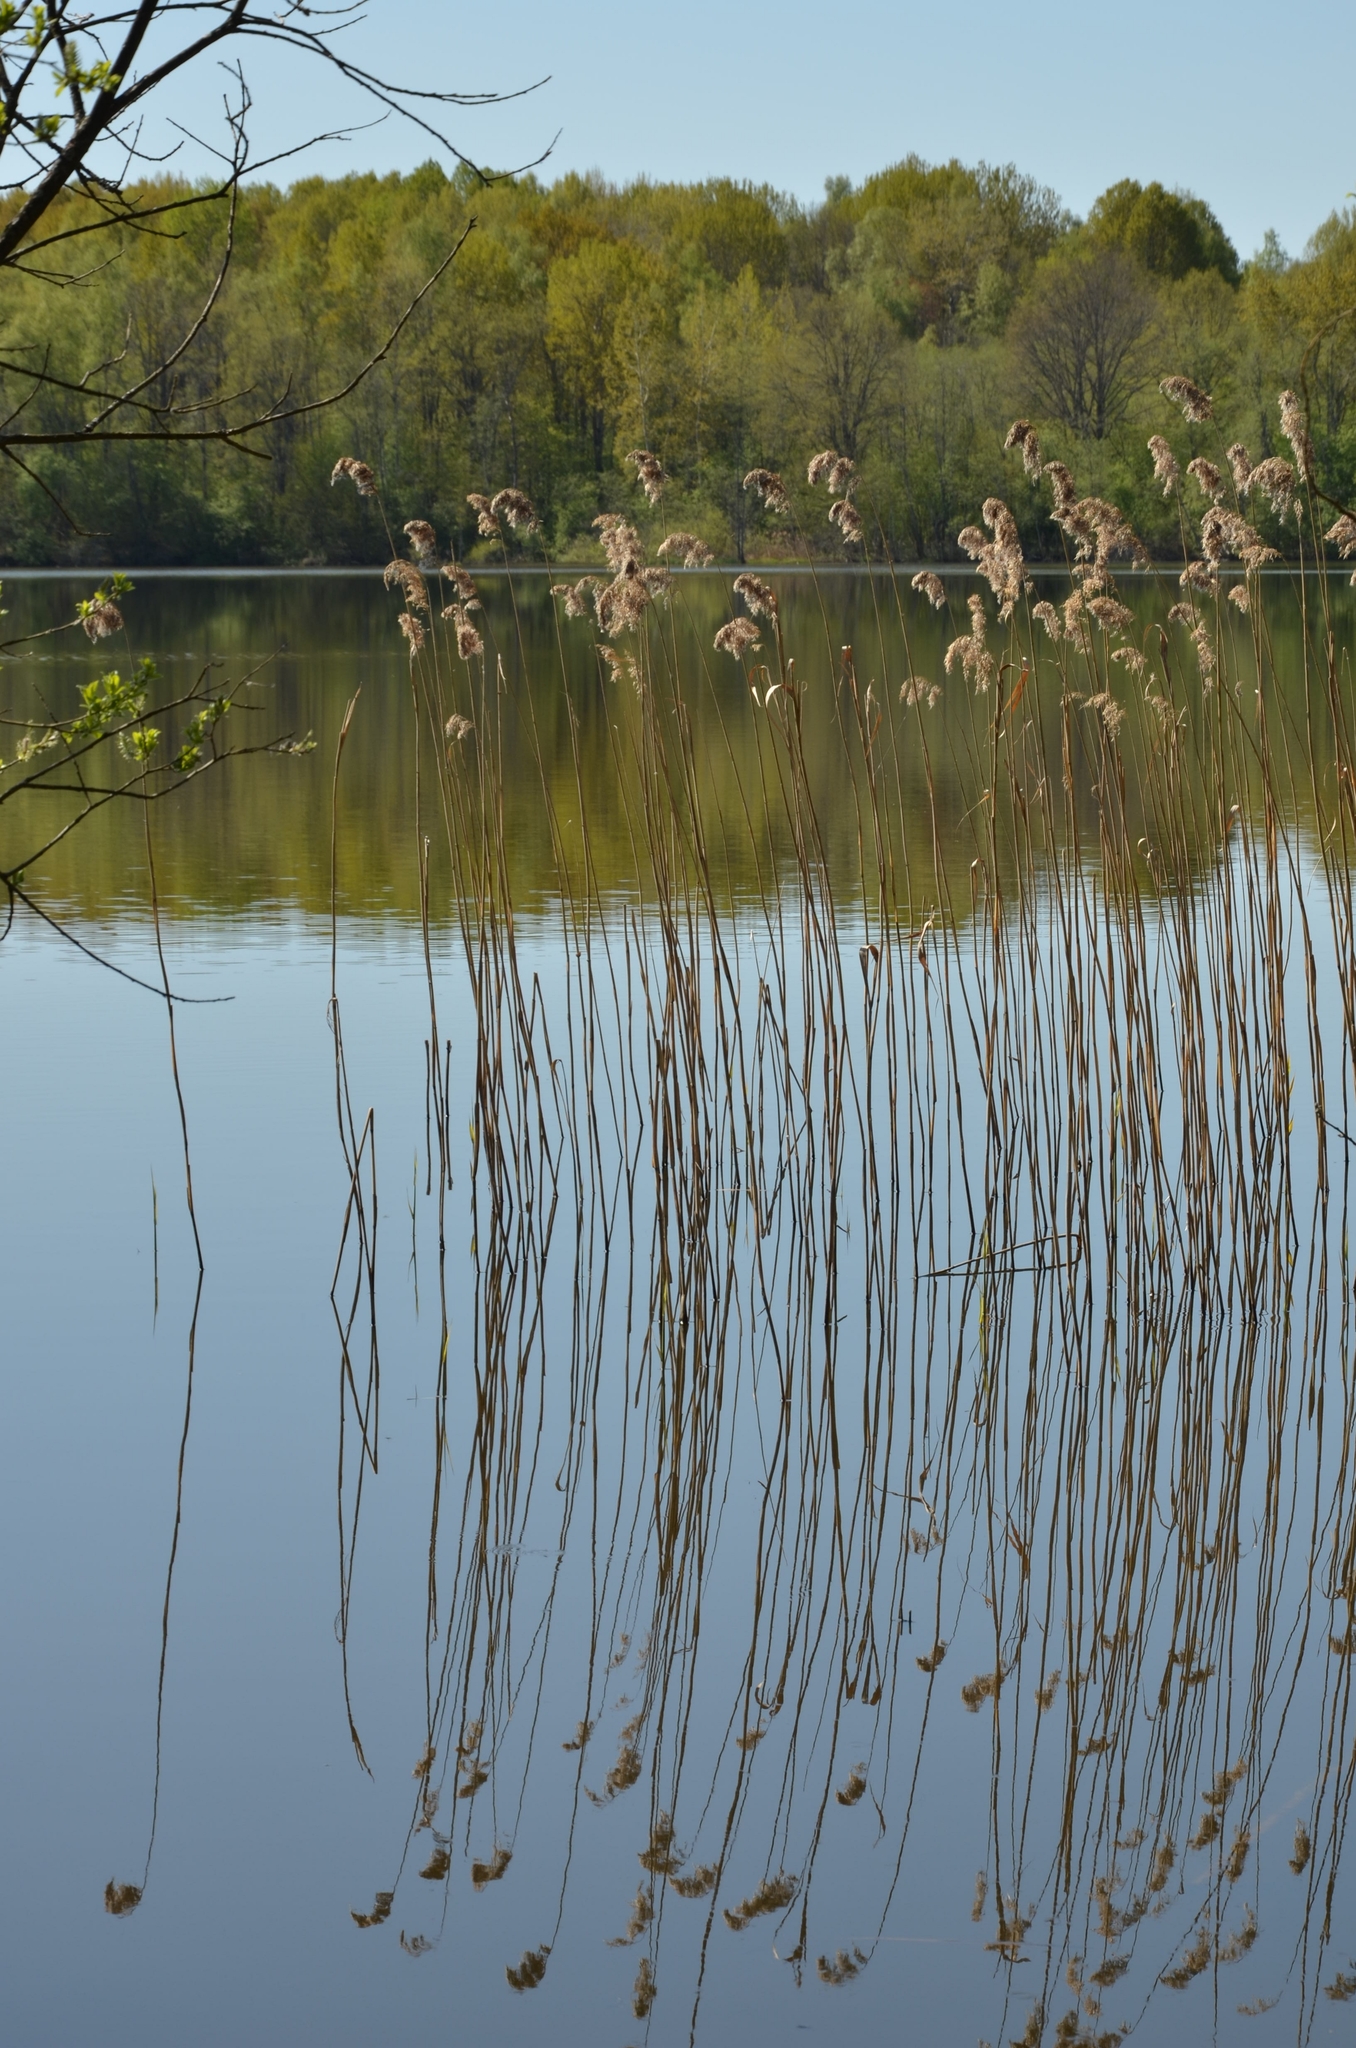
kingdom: Plantae
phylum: Tracheophyta
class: Liliopsida
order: Poales
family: Poaceae
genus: Phragmites
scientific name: Phragmites australis
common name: Common reed
